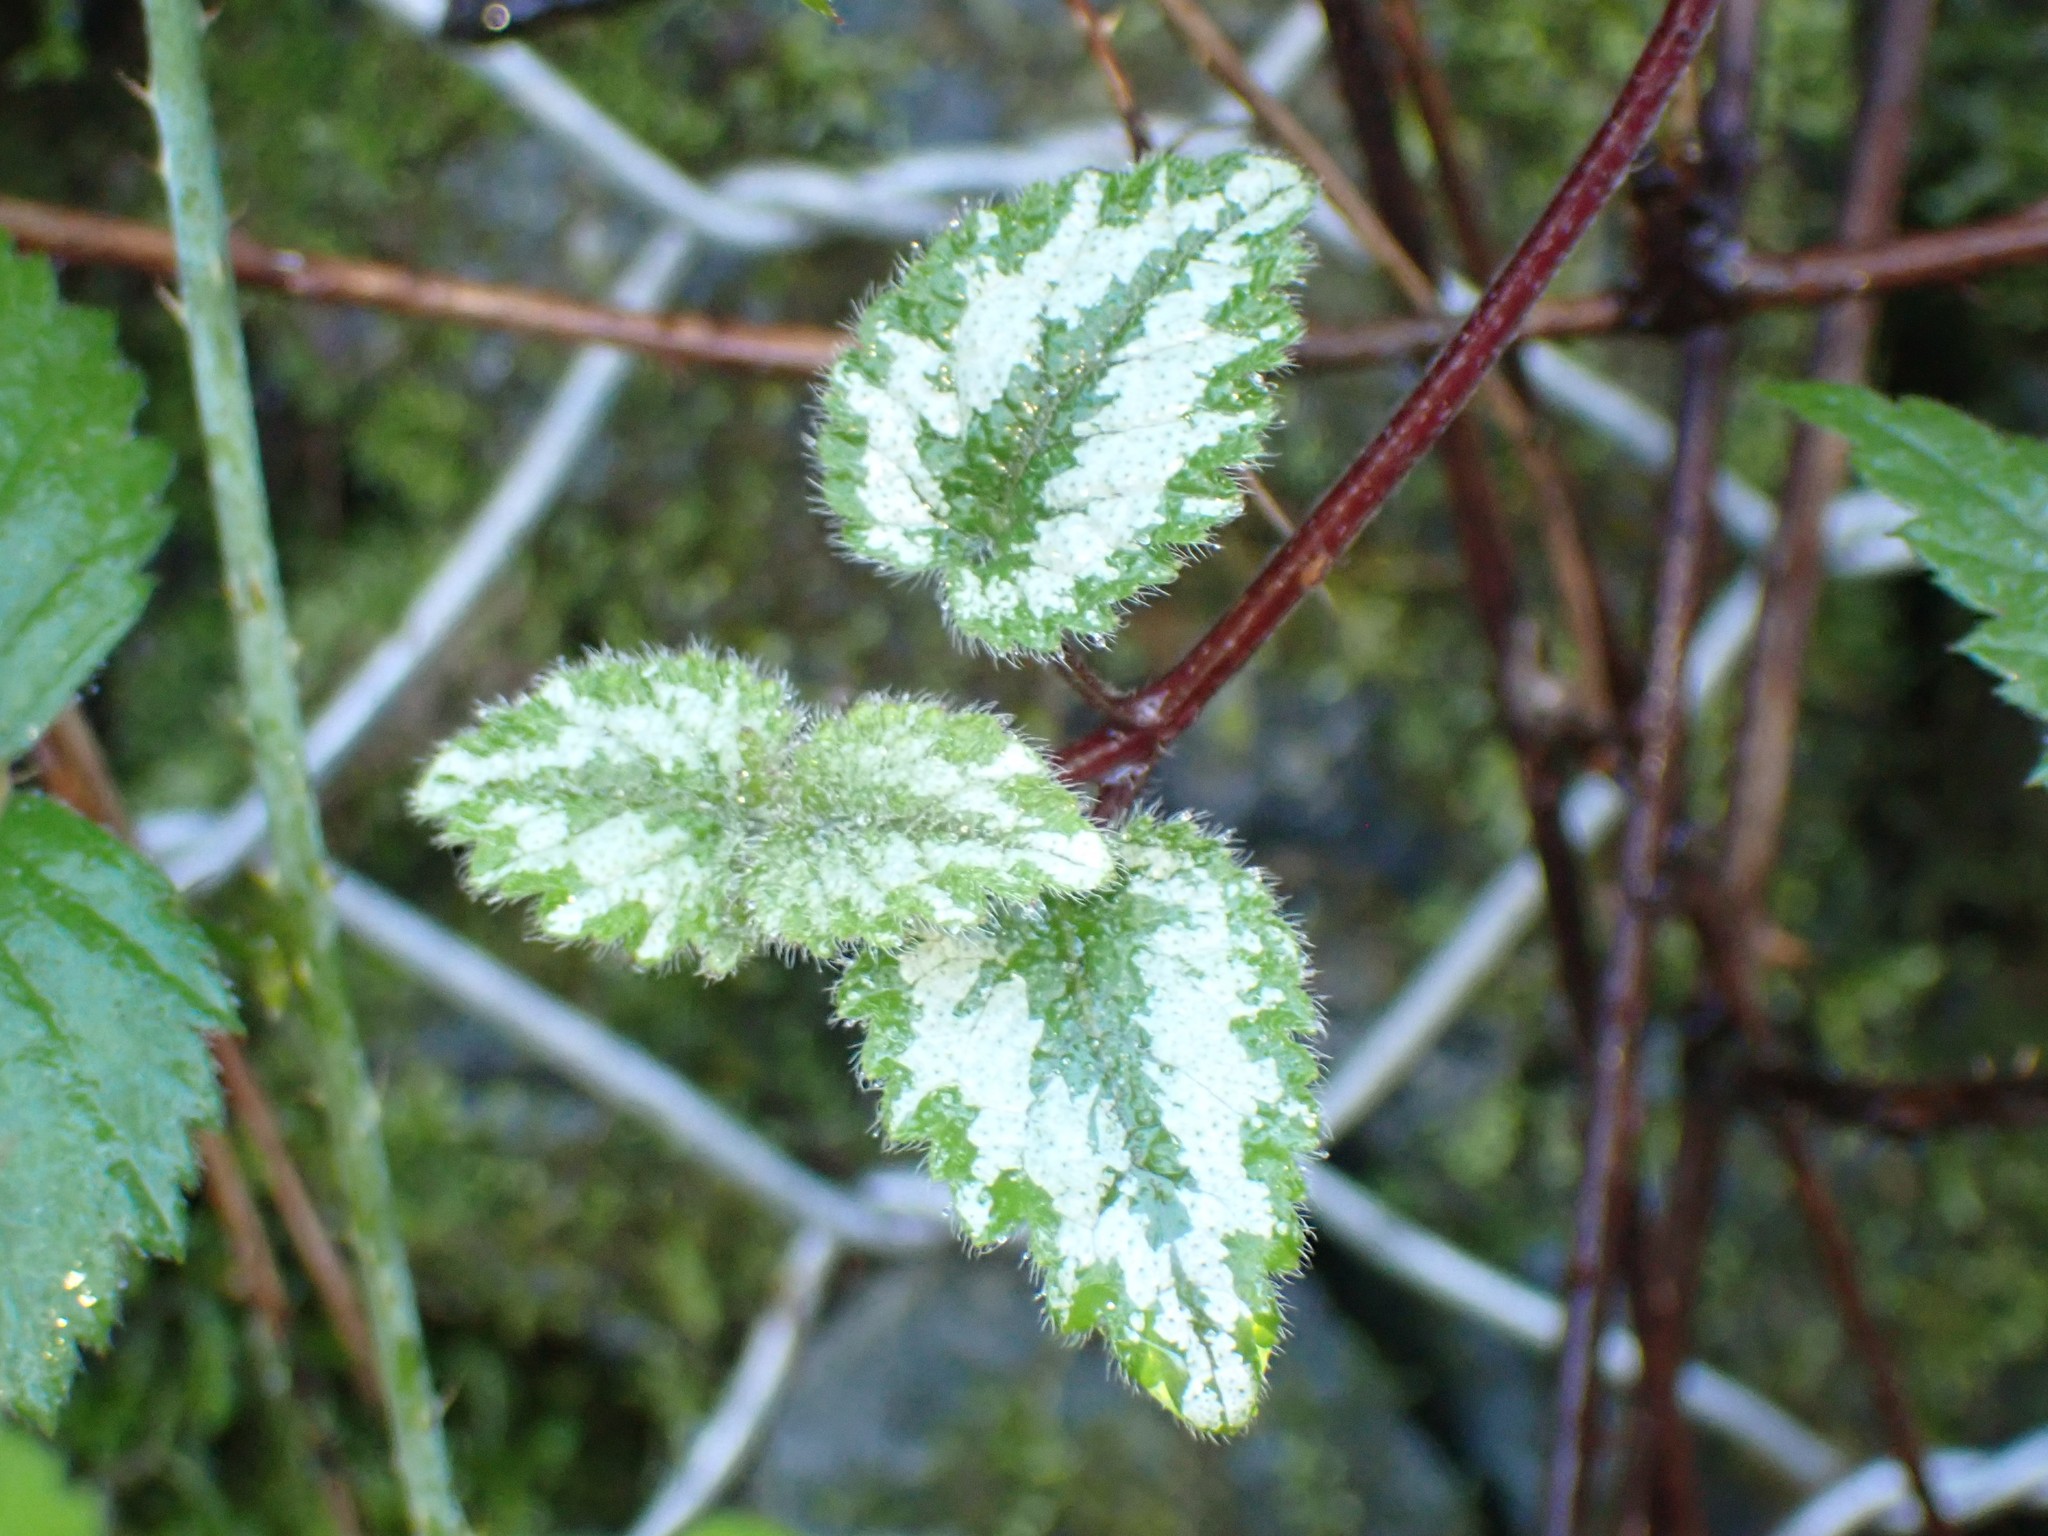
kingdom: Plantae
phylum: Tracheophyta
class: Magnoliopsida
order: Lamiales
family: Lamiaceae
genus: Lamium
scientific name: Lamium galeobdolon
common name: Yellow archangel
